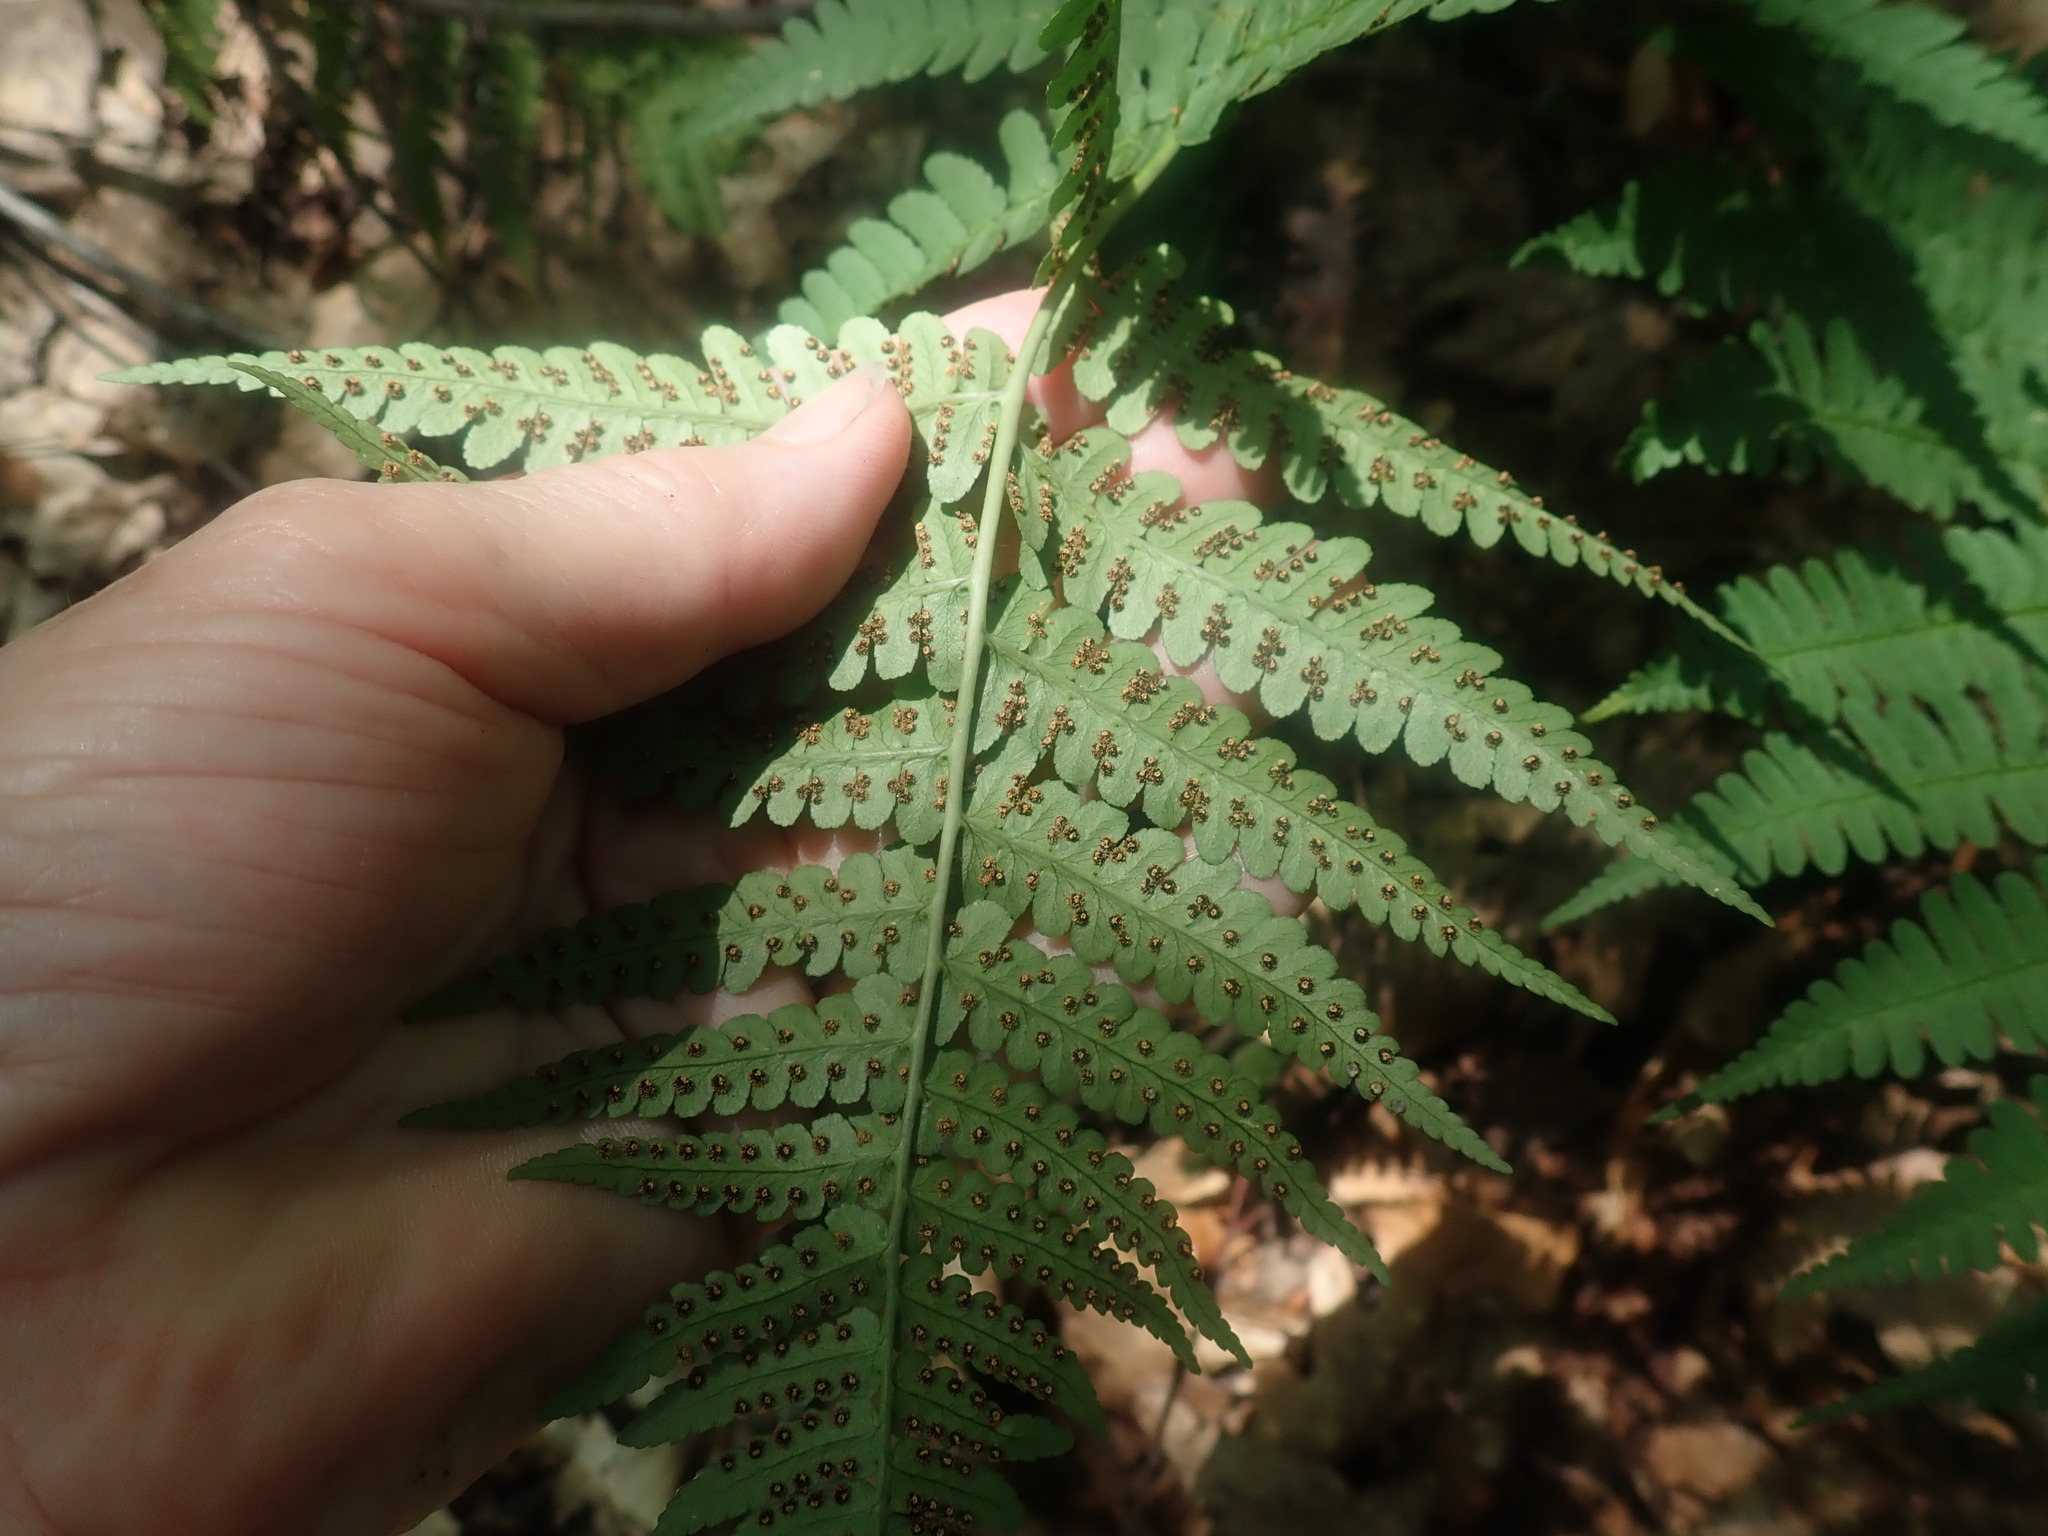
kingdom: Plantae
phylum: Tracheophyta
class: Polypodiopsida
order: Polypodiales
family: Dryopteridaceae
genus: Dryopteris
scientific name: Dryopteris marginalis
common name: Marginal wood fern
